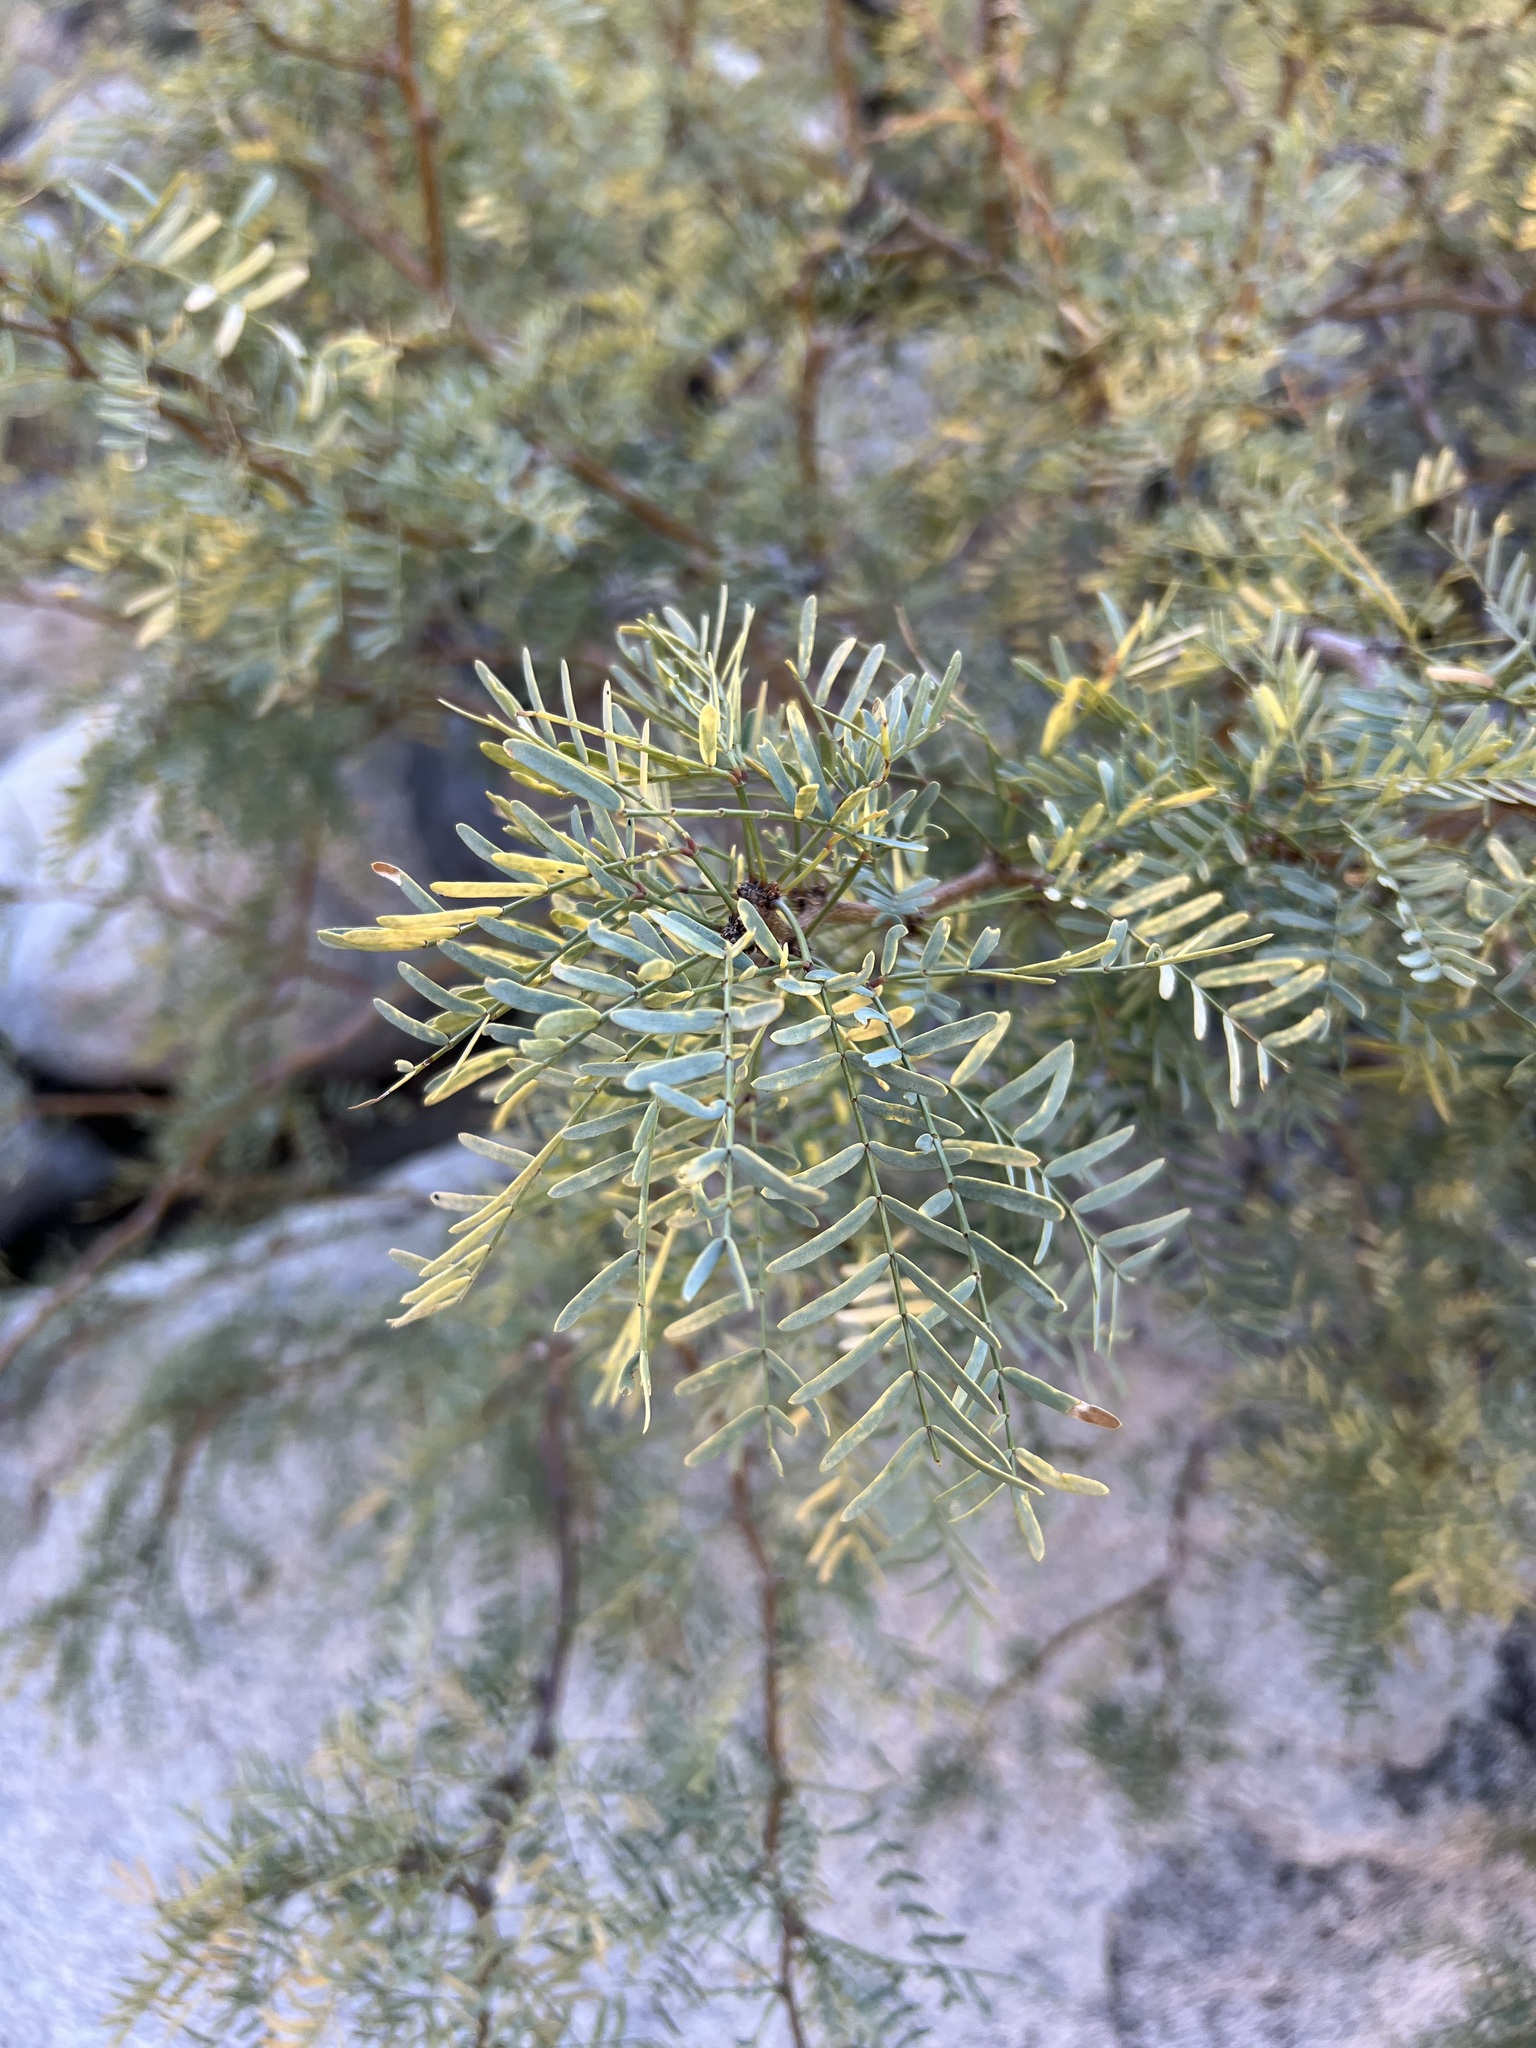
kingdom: Plantae
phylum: Tracheophyta
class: Magnoliopsida
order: Fabales
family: Fabaceae
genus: Prosopis
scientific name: Prosopis pubescens
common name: Screw-bean
